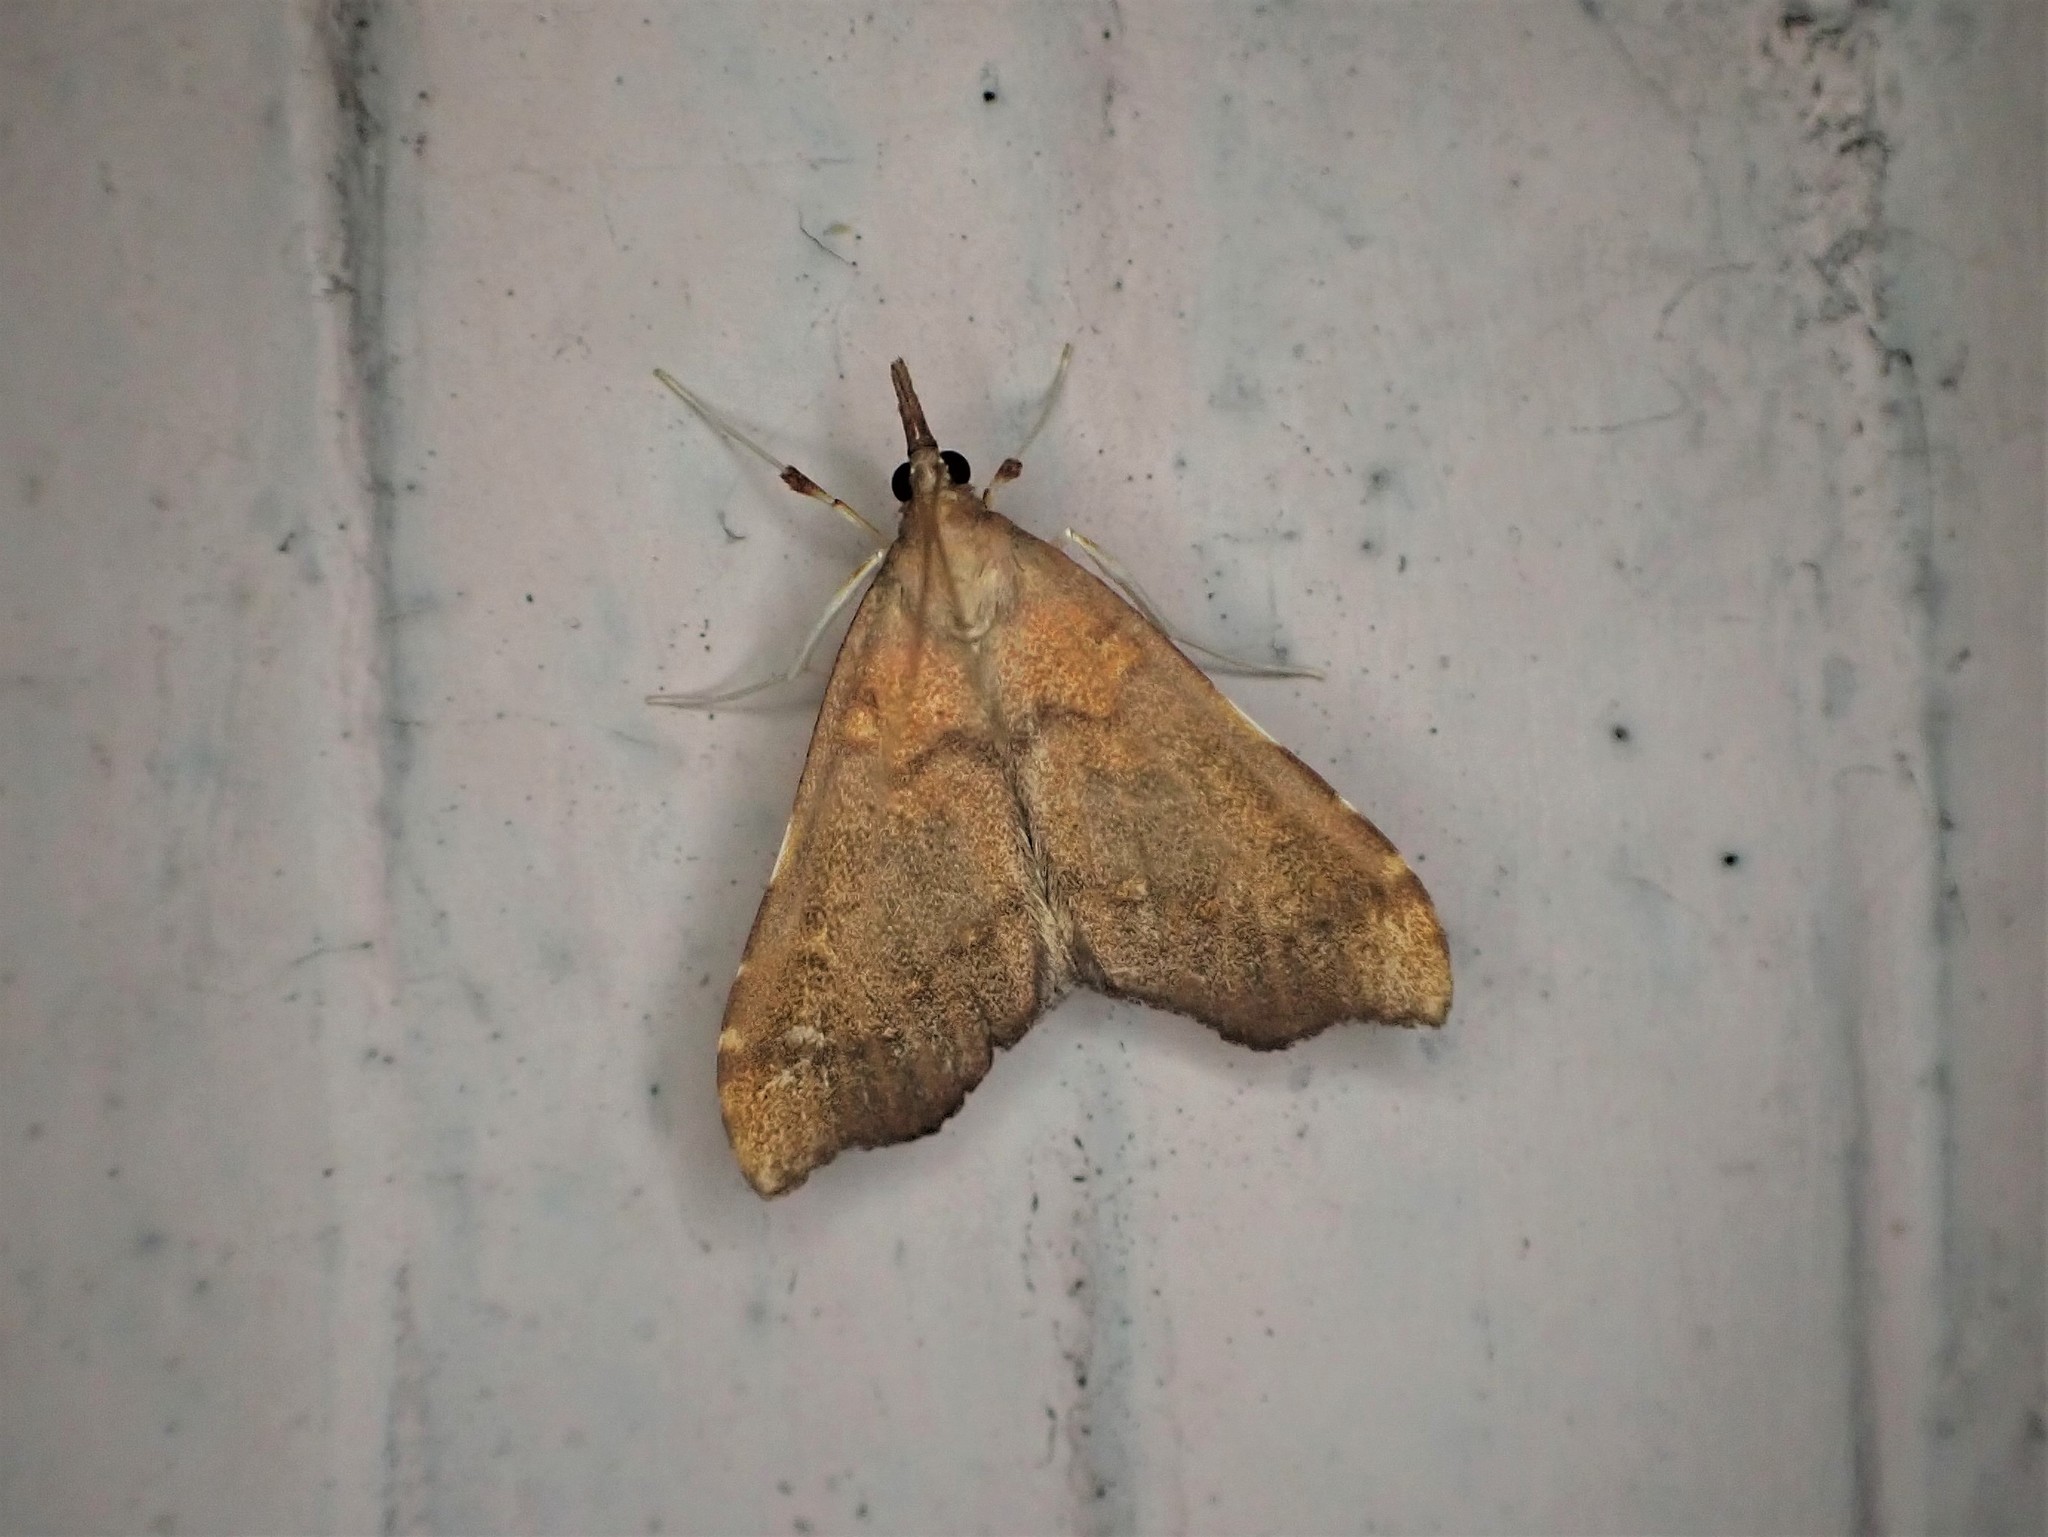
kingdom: Animalia
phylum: Arthropoda
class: Insecta
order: Lepidoptera
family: Crambidae
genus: Deana
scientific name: Deana hybreasalis
